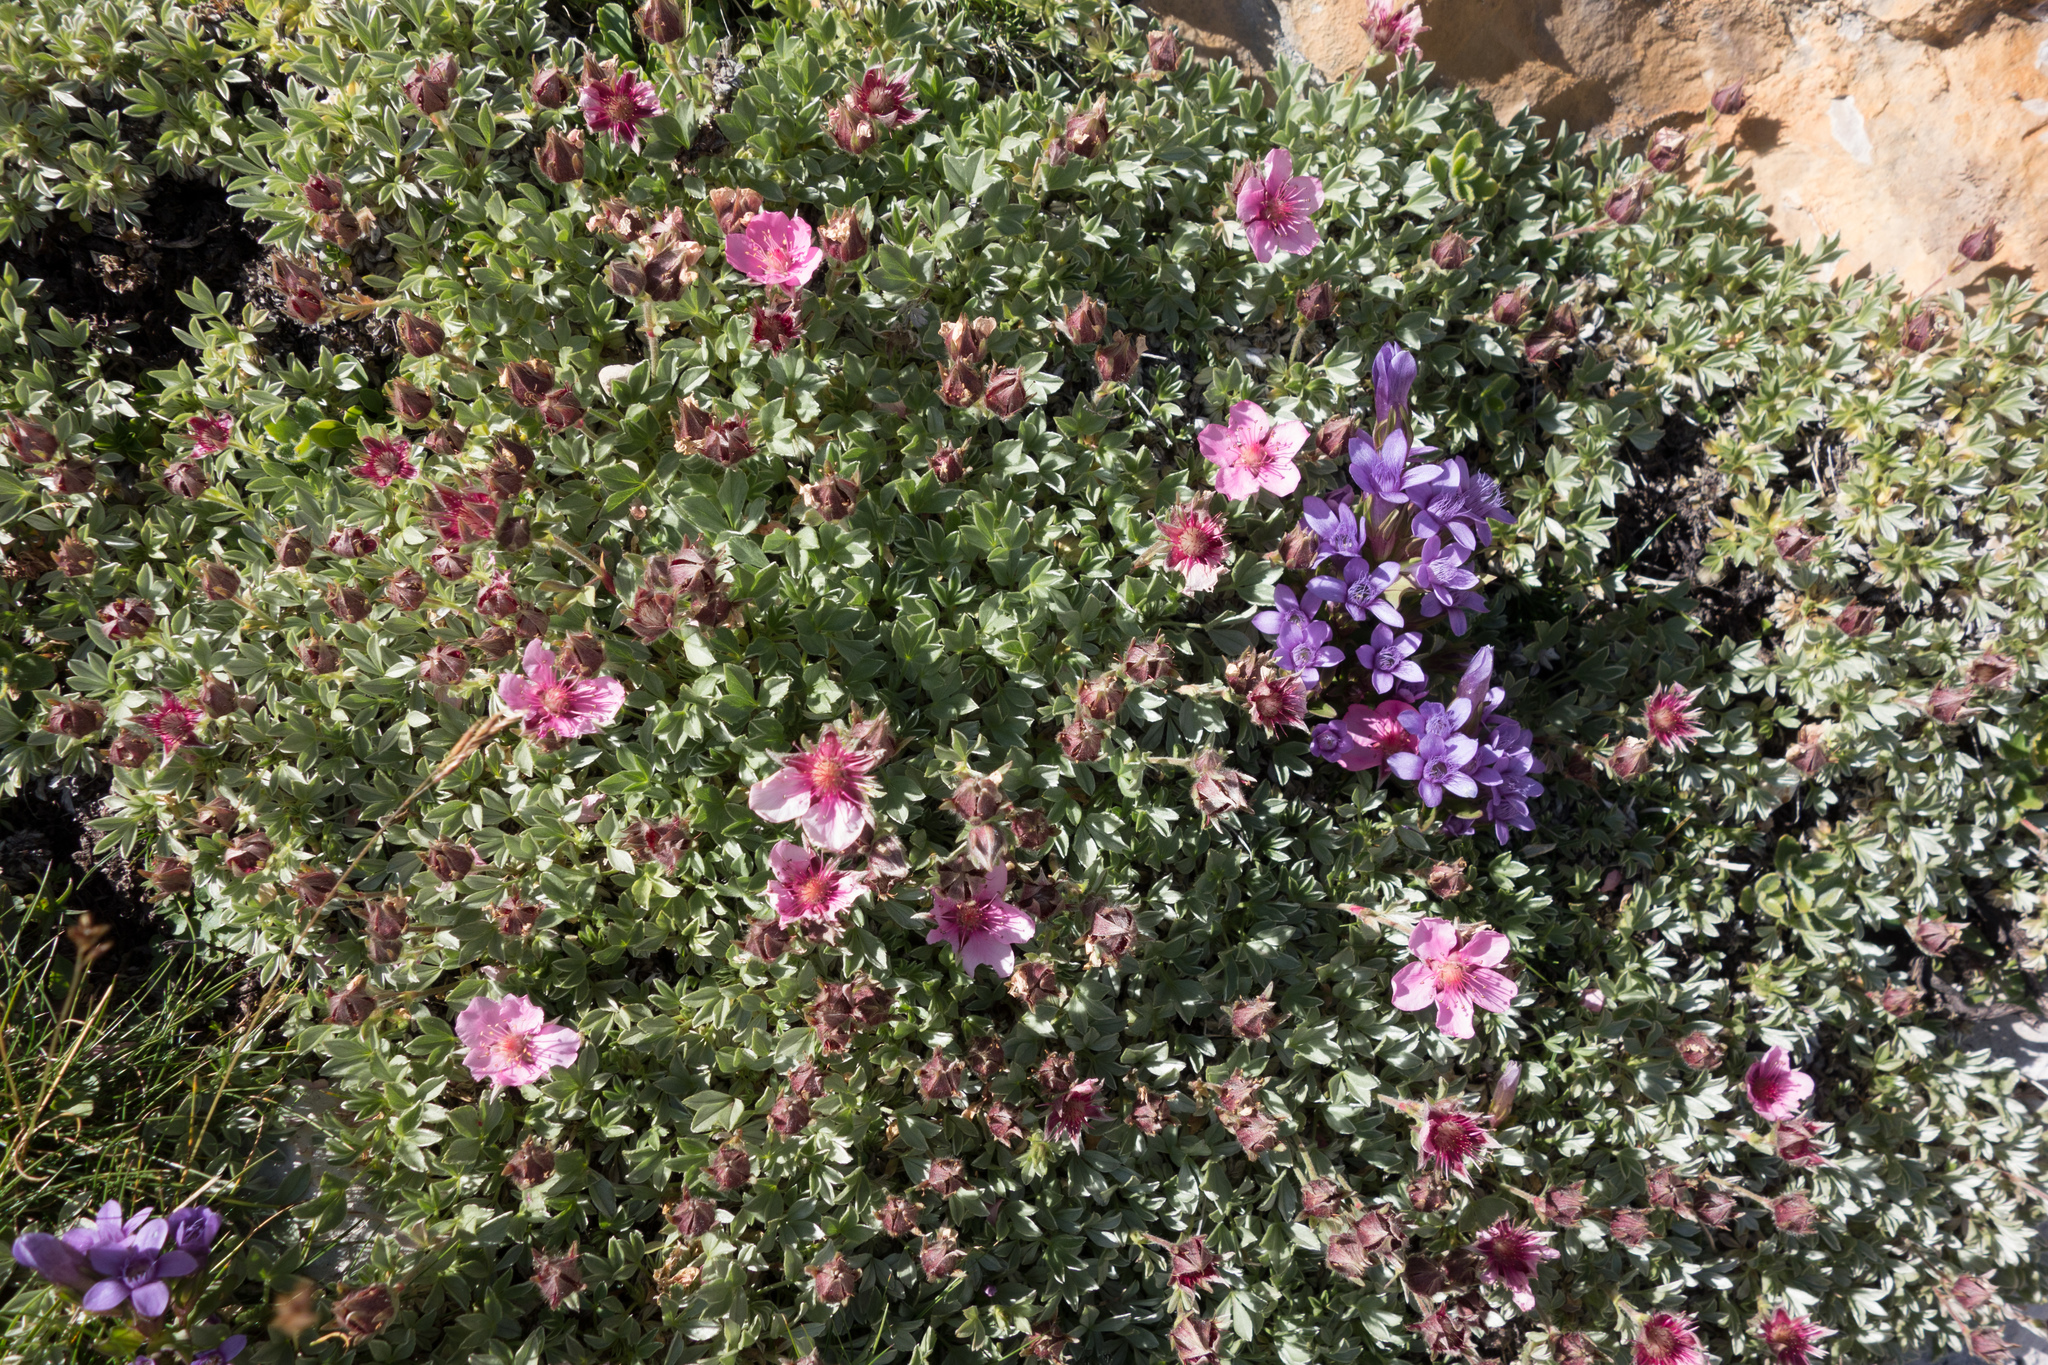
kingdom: Plantae
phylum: Tracheophyta
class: Magnoliopsida
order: Rosales
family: Rosaceae
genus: Potentilla
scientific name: Potentilla nitida
